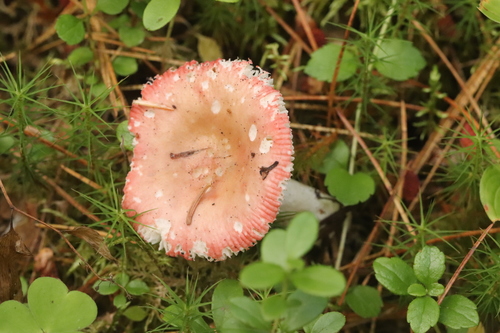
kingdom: Fungi
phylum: Basidiomycota
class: Agaricomycetes
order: Russulales
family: Russulaceae
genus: Russula
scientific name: Russula
